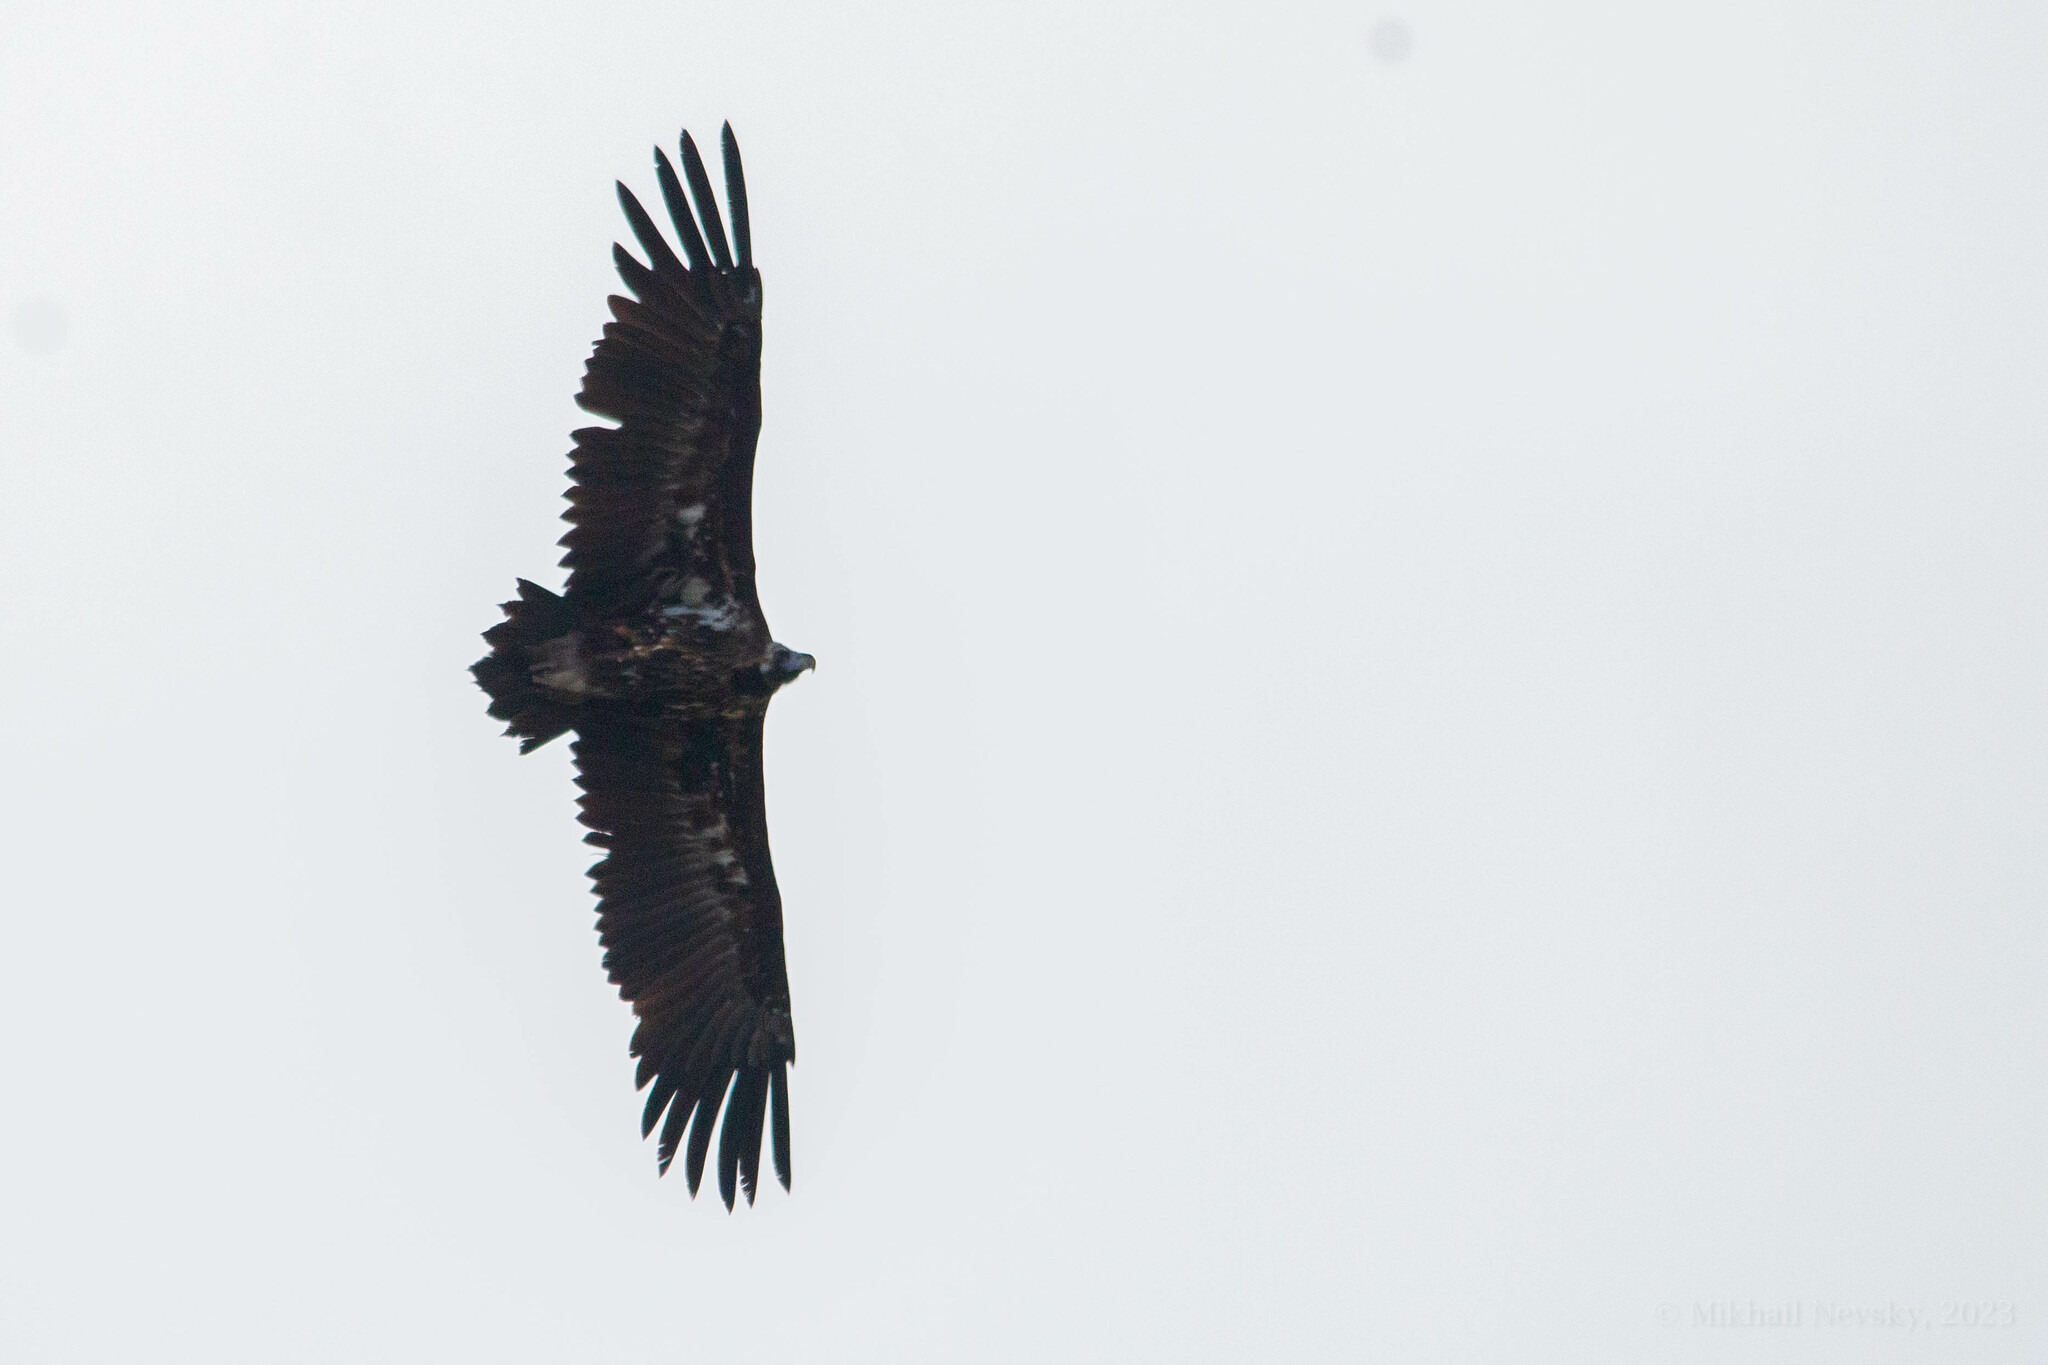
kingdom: Animalia
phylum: Chordata
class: Aves
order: Accipitriformes
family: Accipitridae
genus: Aegypius
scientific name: Aegypius monachus
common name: Cinereous vulture
